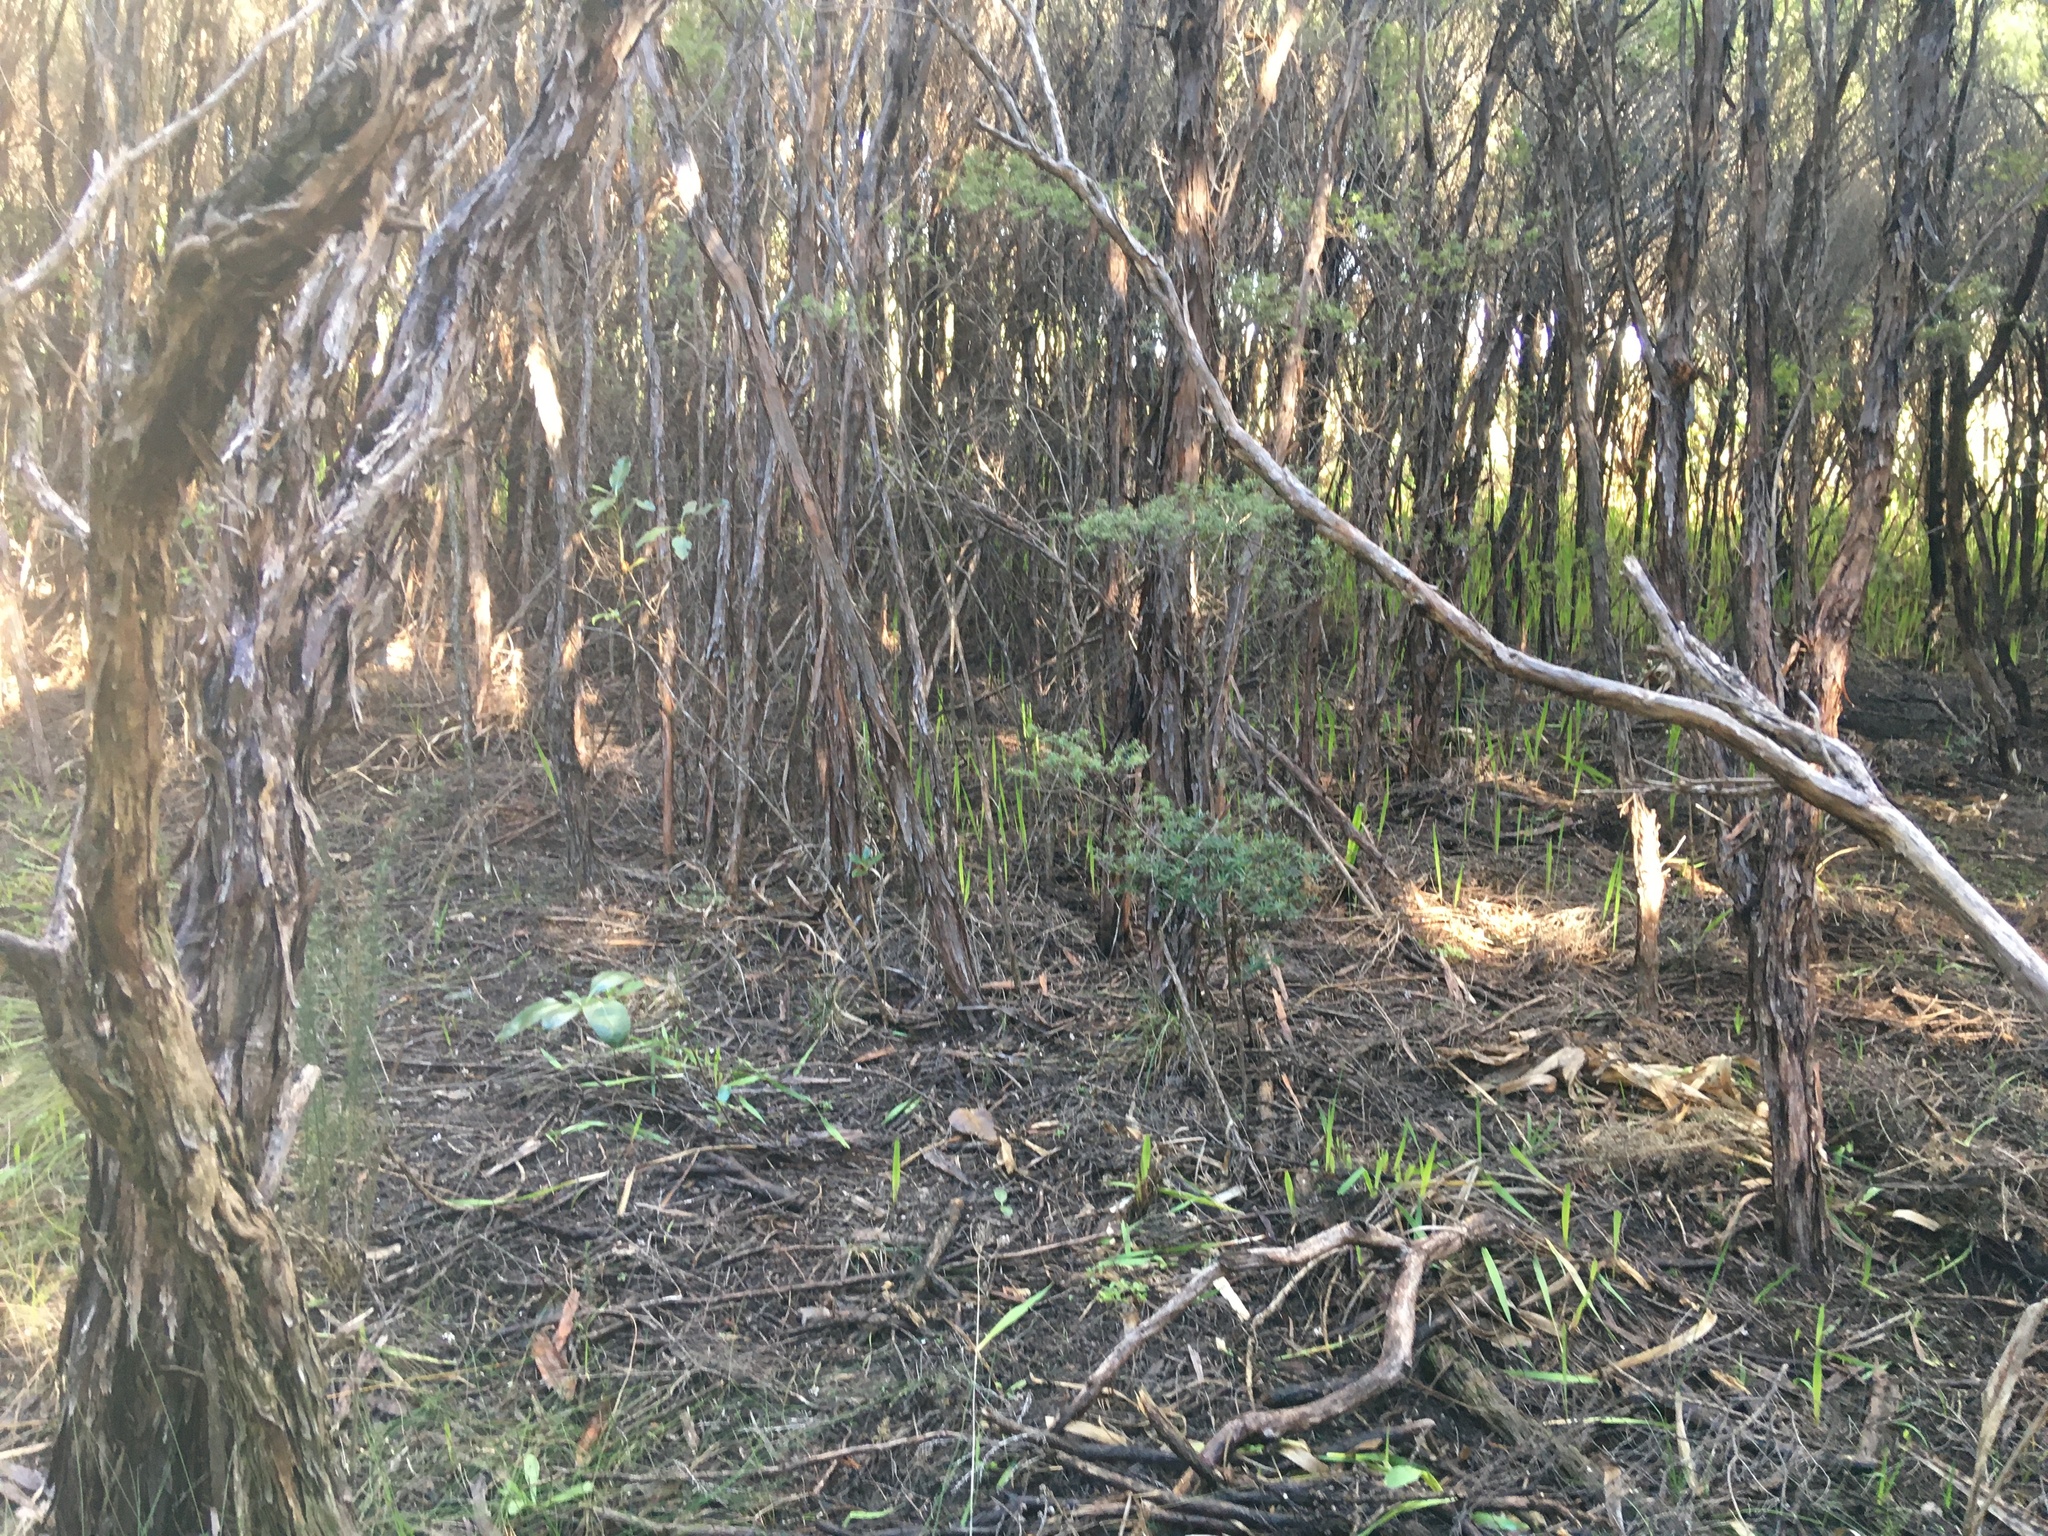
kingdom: Plantae
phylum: Tracheophyta
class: Liliopsida
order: Asparagales
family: Iridaceae
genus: Watsonia
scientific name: Watsonia meriana
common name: Bulbil bugle-lily
